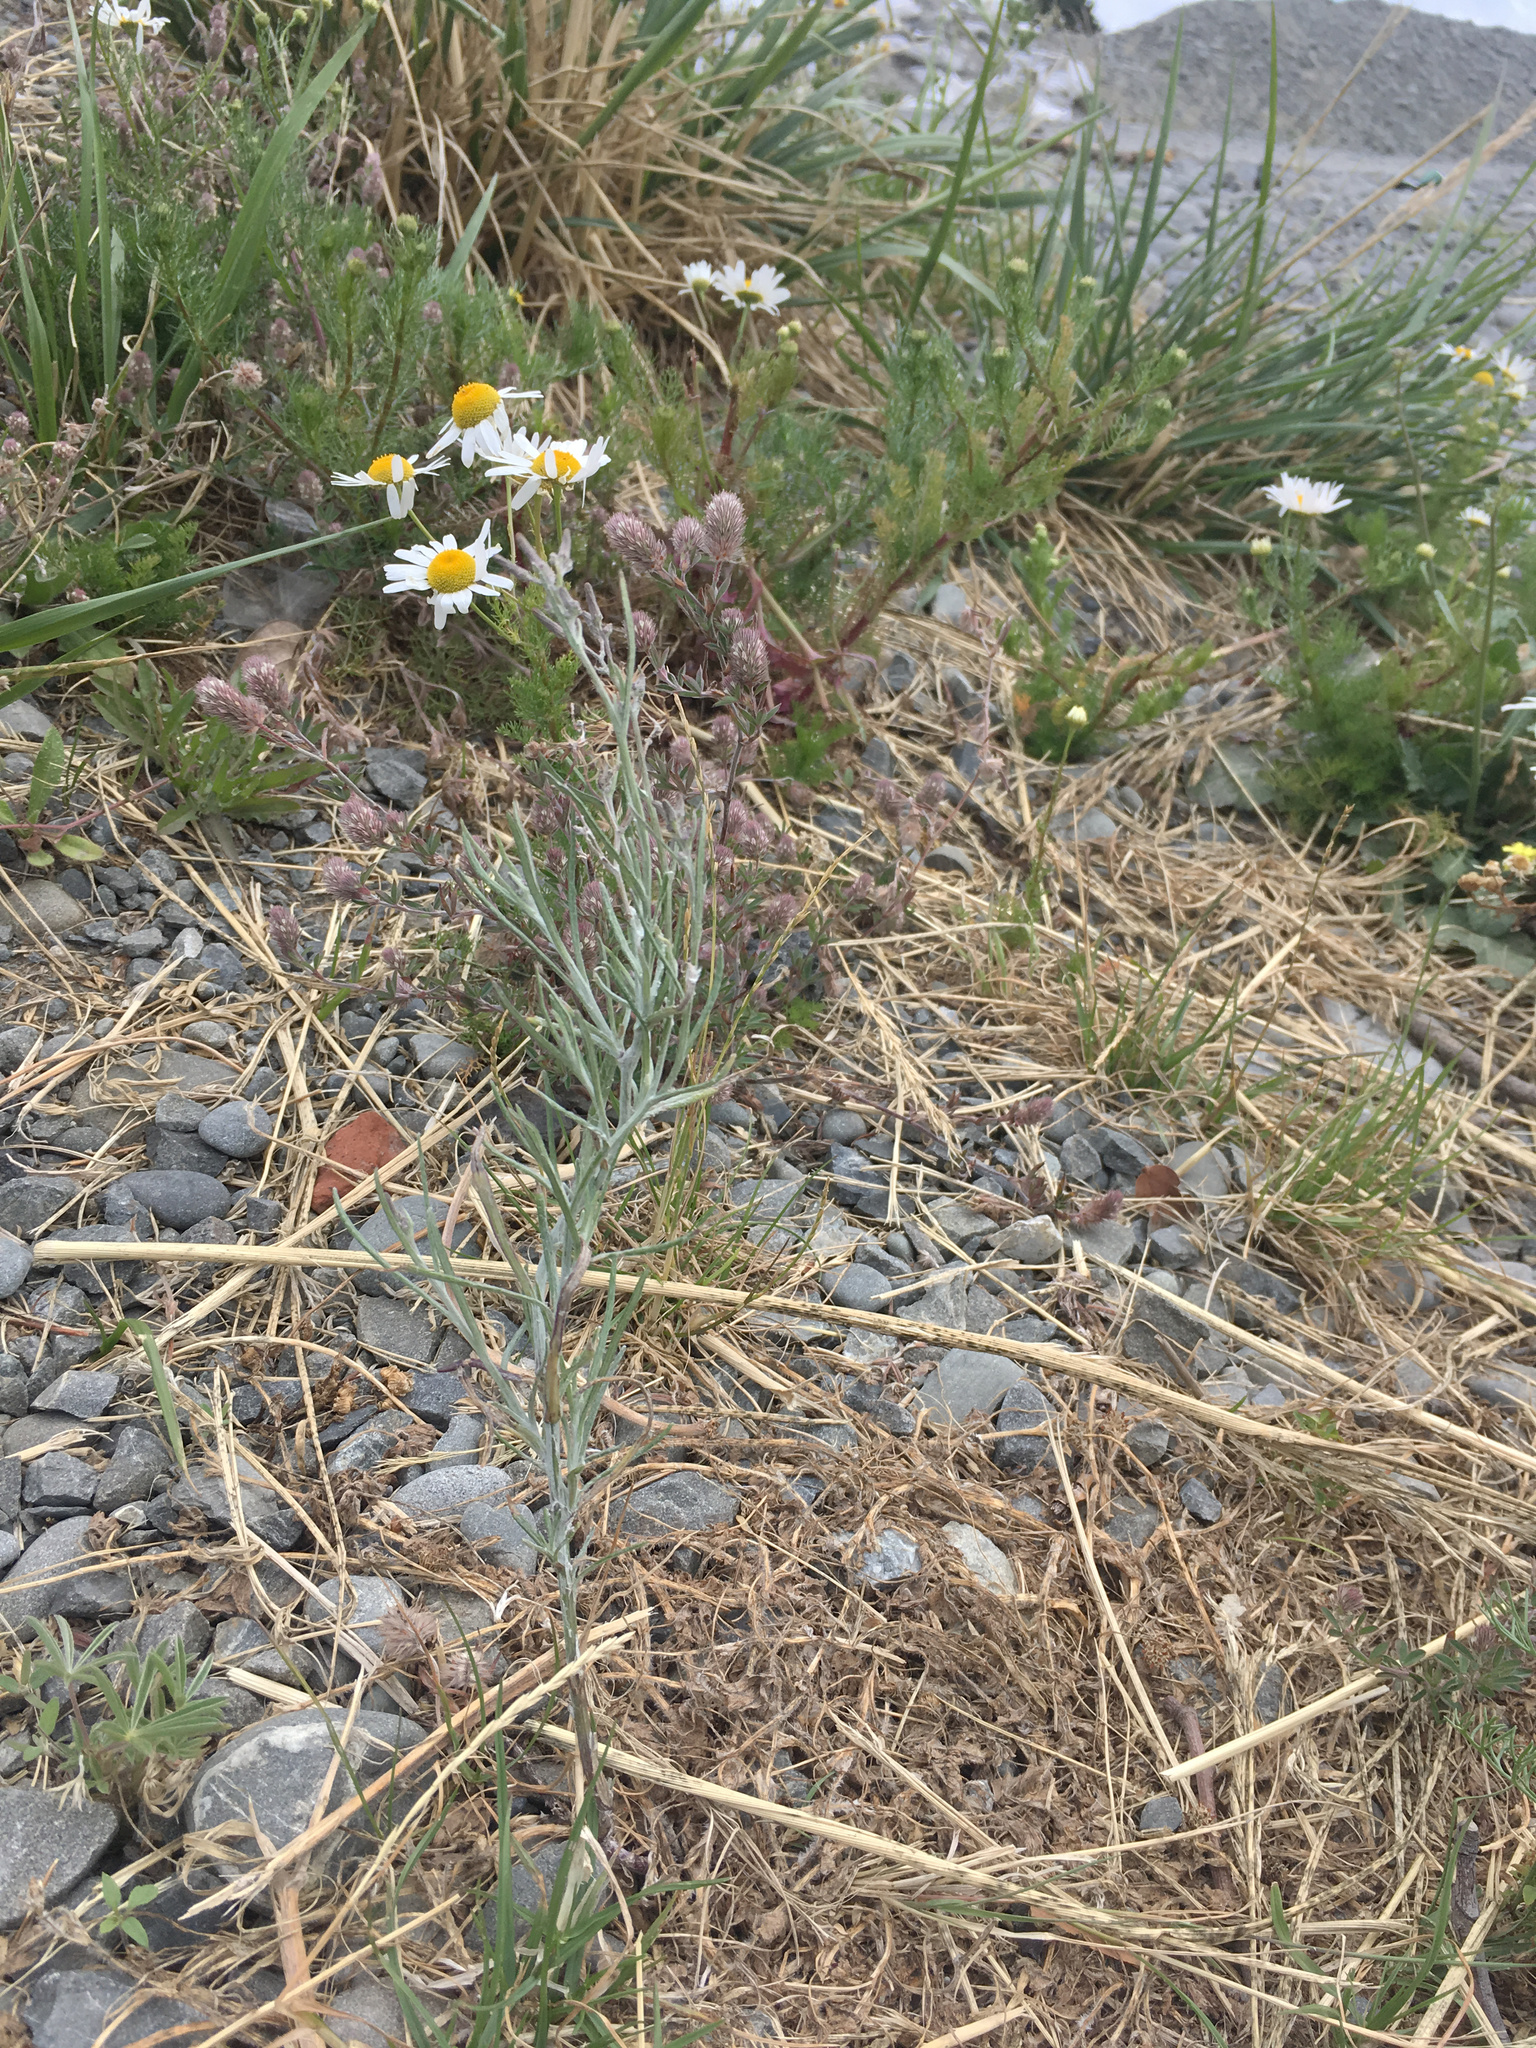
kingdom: Plantae
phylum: Tracheophyta
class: Magnoliopsida
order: Asterales
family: Asteraceae
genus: Senecio
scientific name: Senecio quadridentatus
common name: Cotton fireweed
